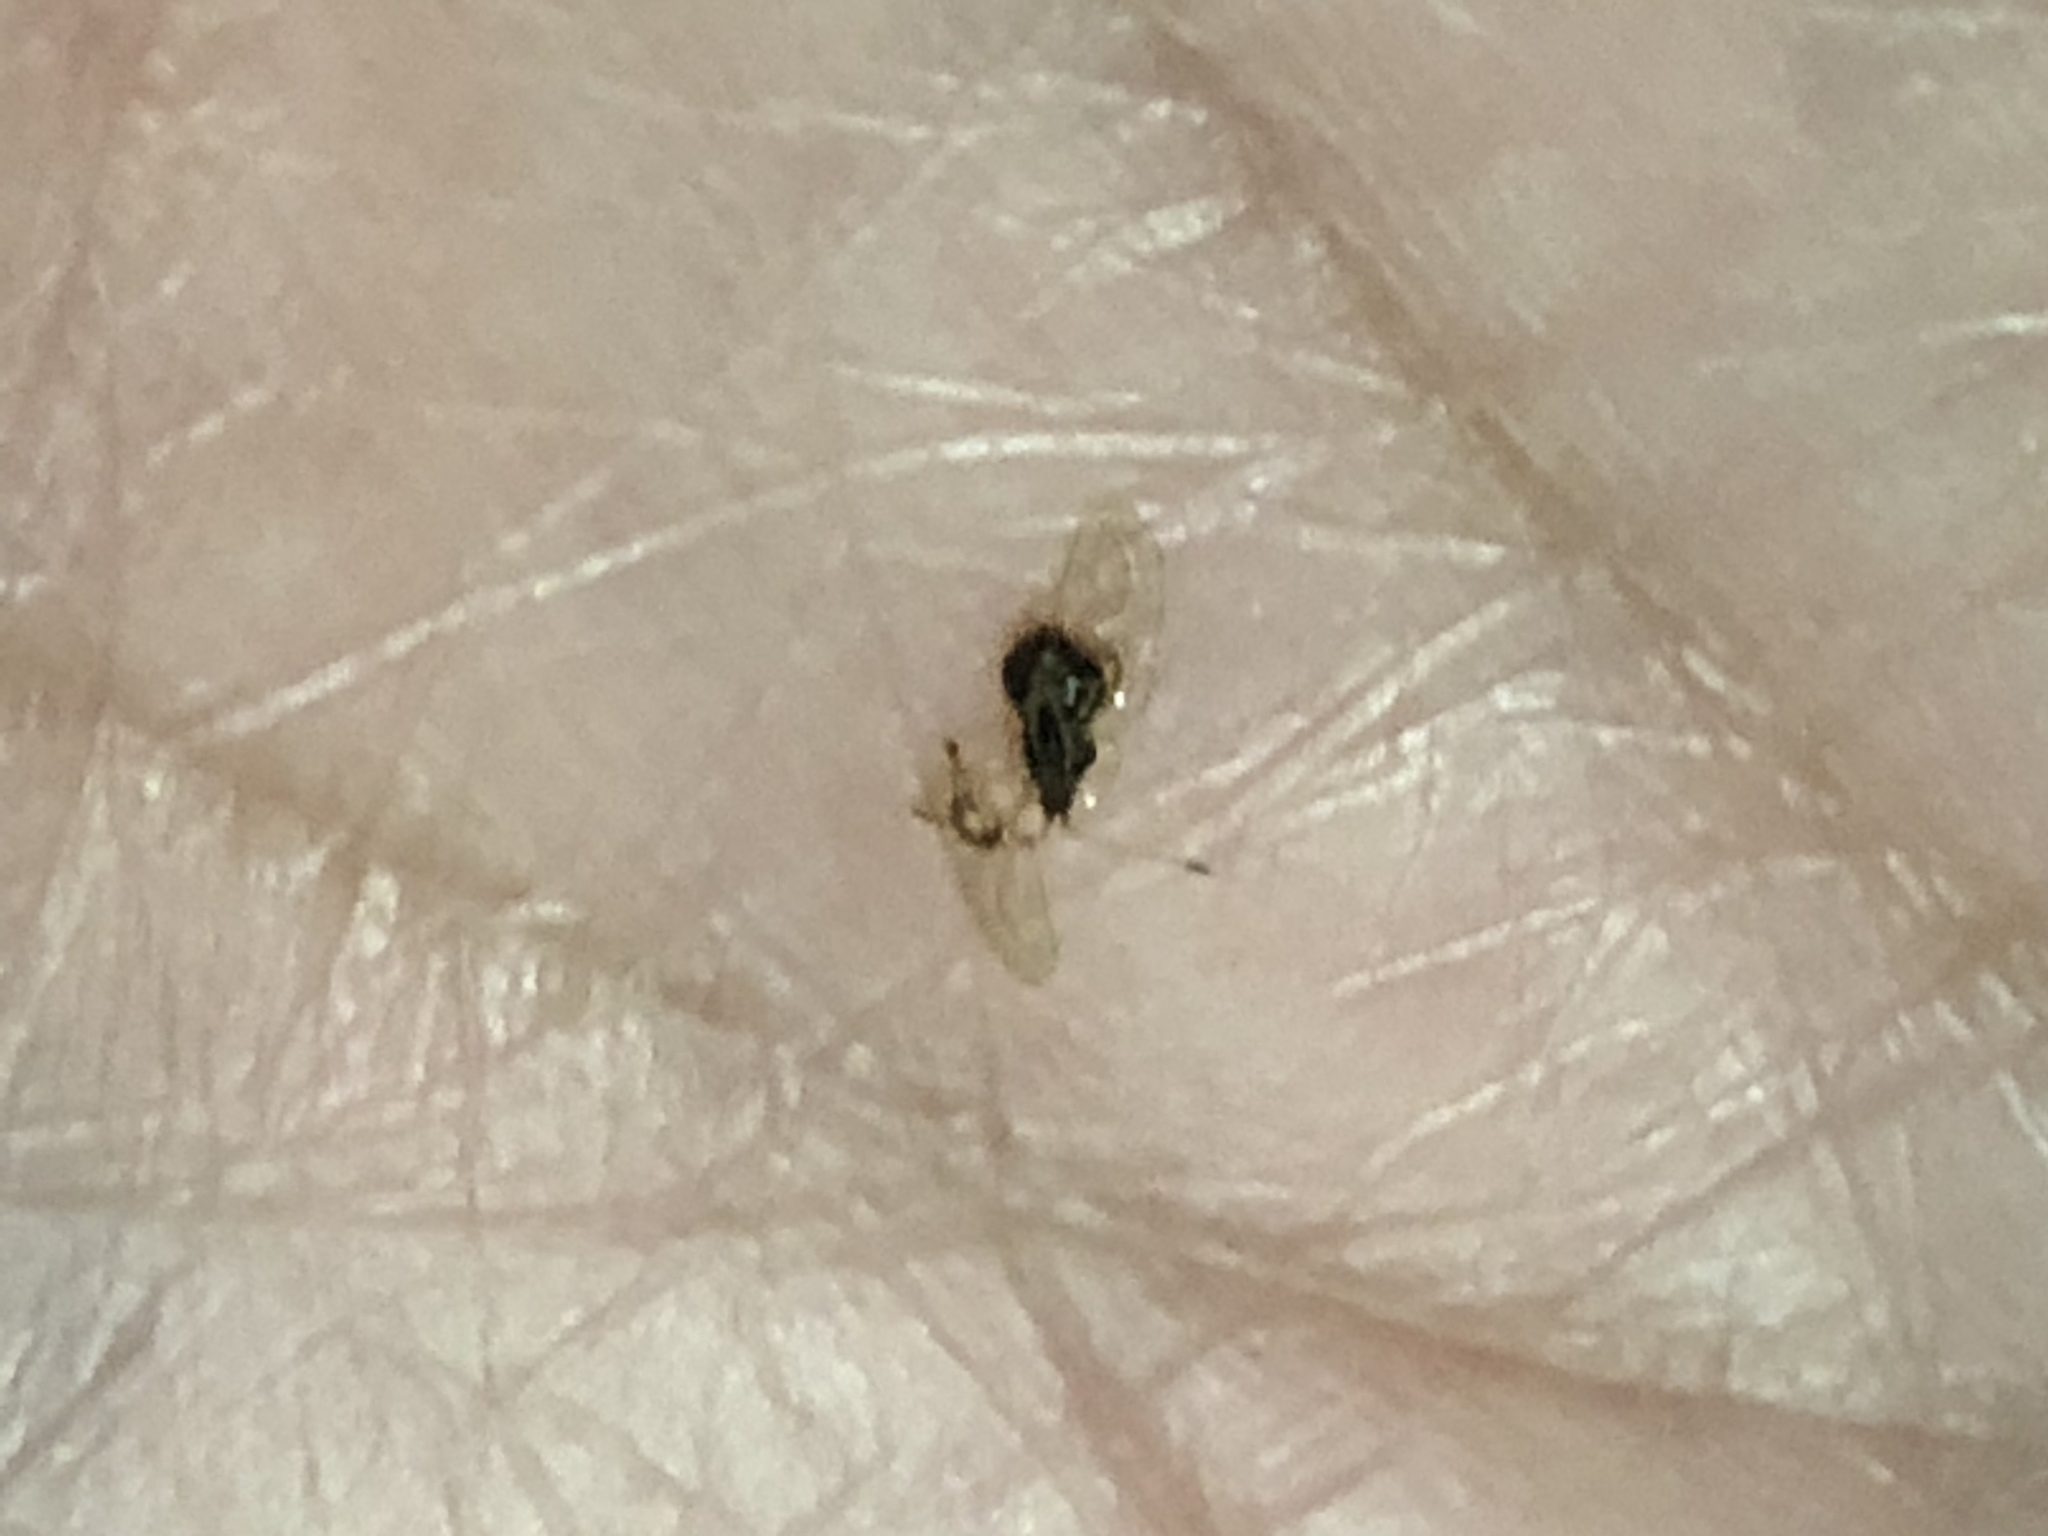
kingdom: Animalia
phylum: Arthropoda
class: Insecta
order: Hemiptera
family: Tingidae
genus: Leptobyrsa
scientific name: Leptobyrsa decora
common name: Lace bug
